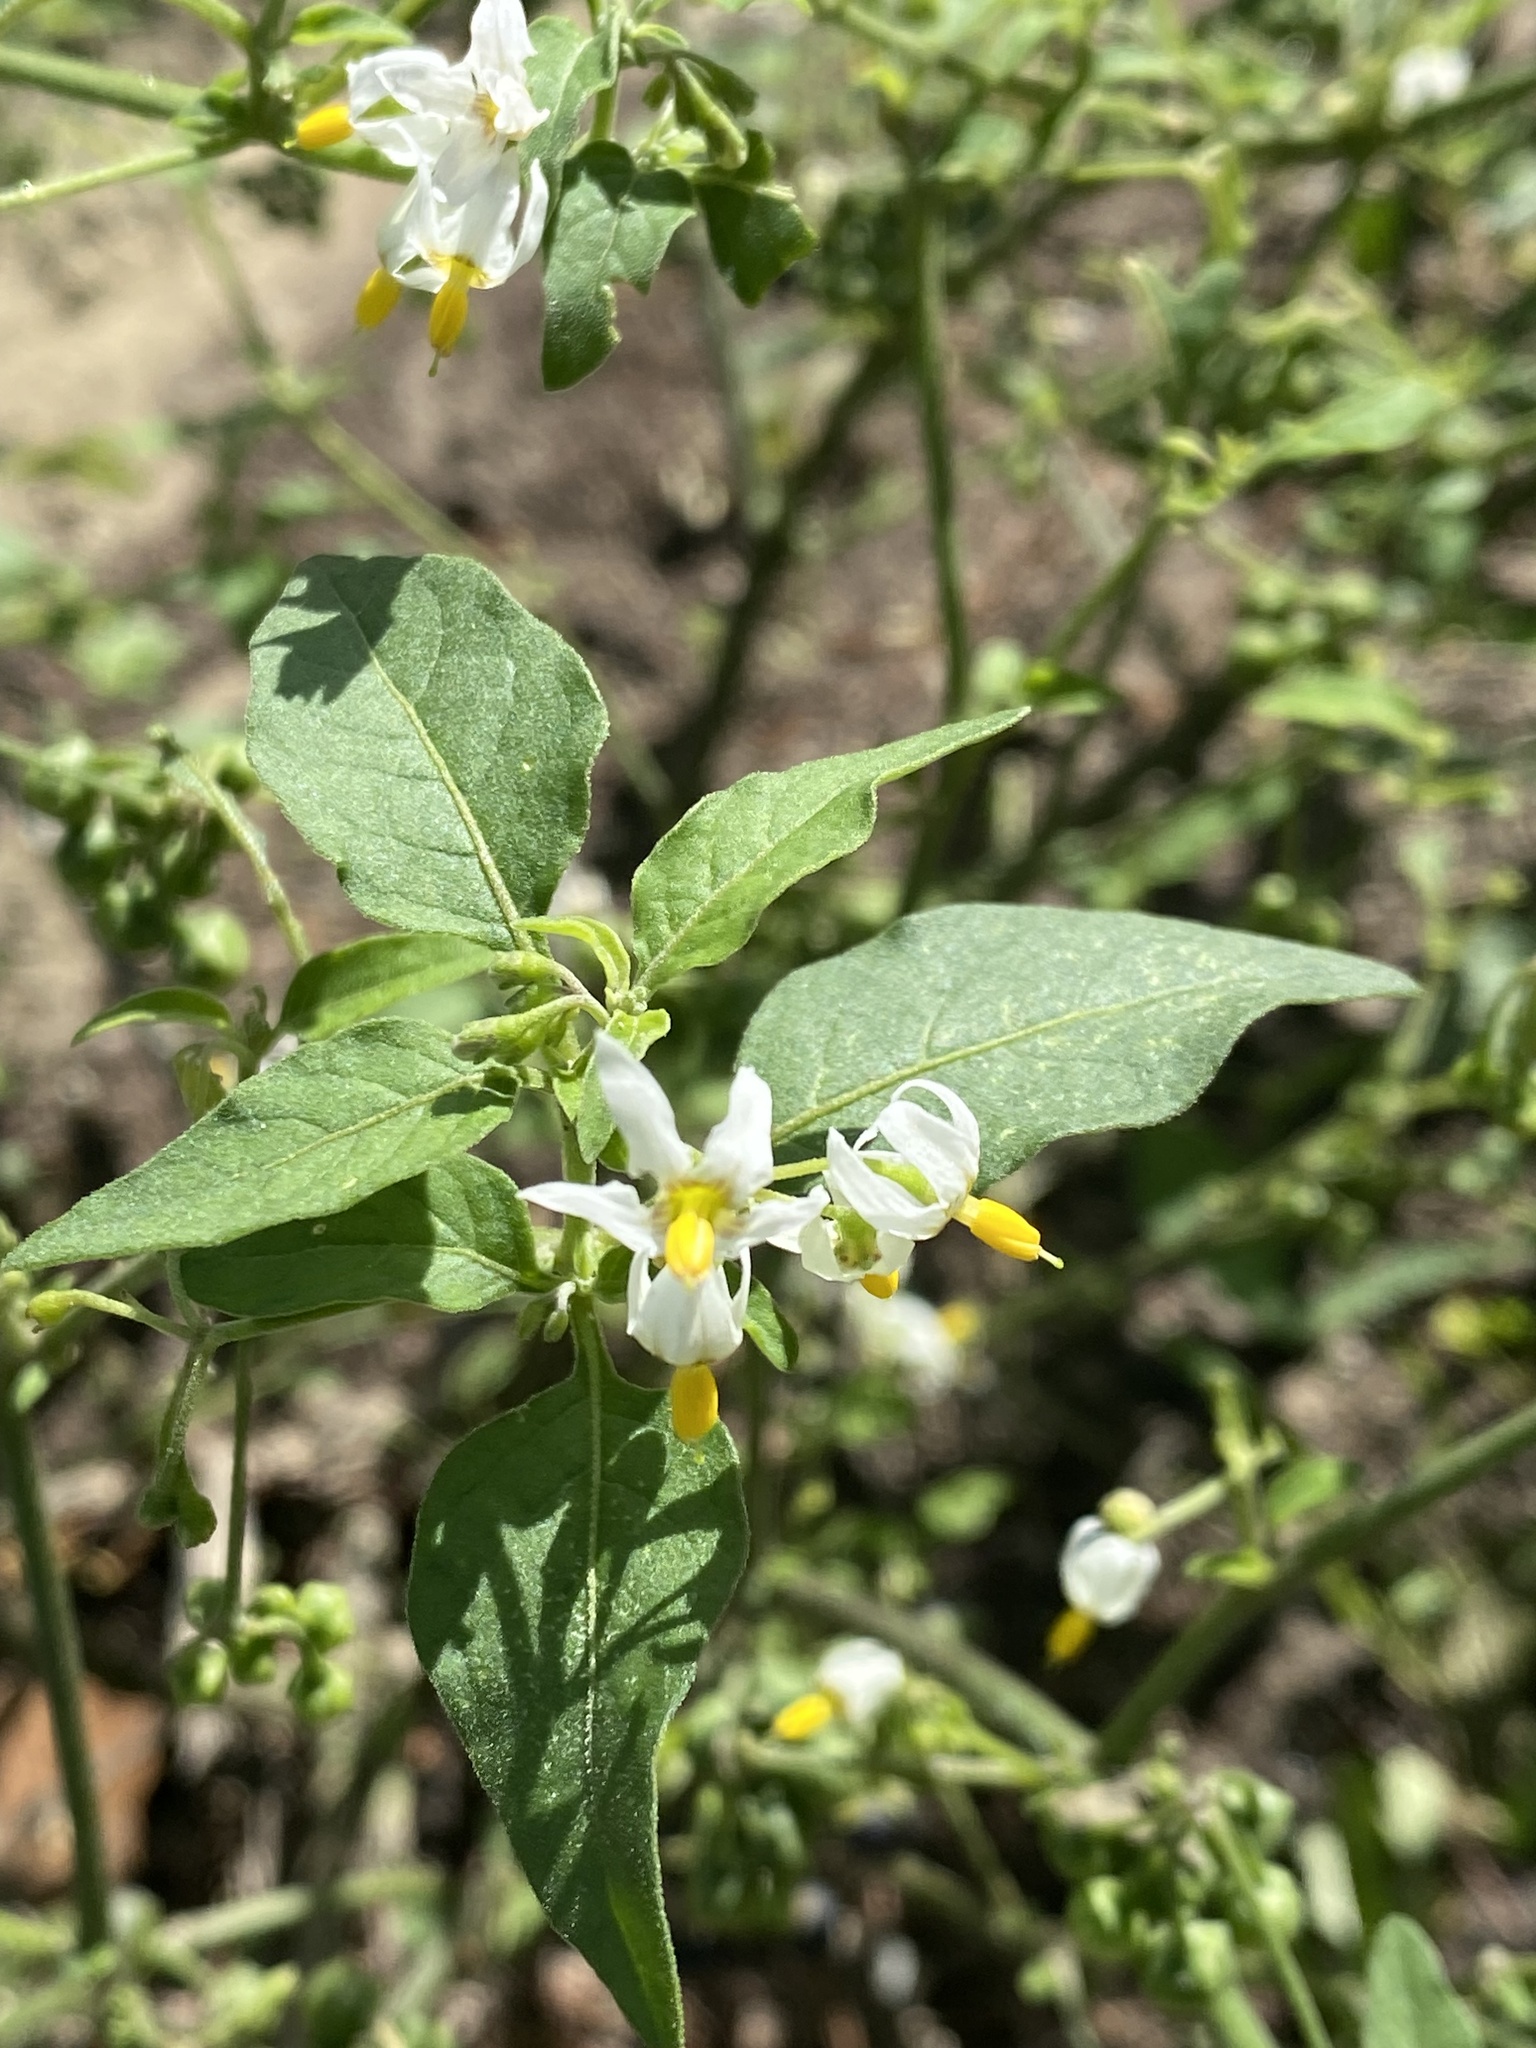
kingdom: Plantae
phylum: Tracheophyta
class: Magnoliopsida
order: Solanales
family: Solanaceae
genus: Solanum
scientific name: Solanum chenopodioides
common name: Tall nightshade
